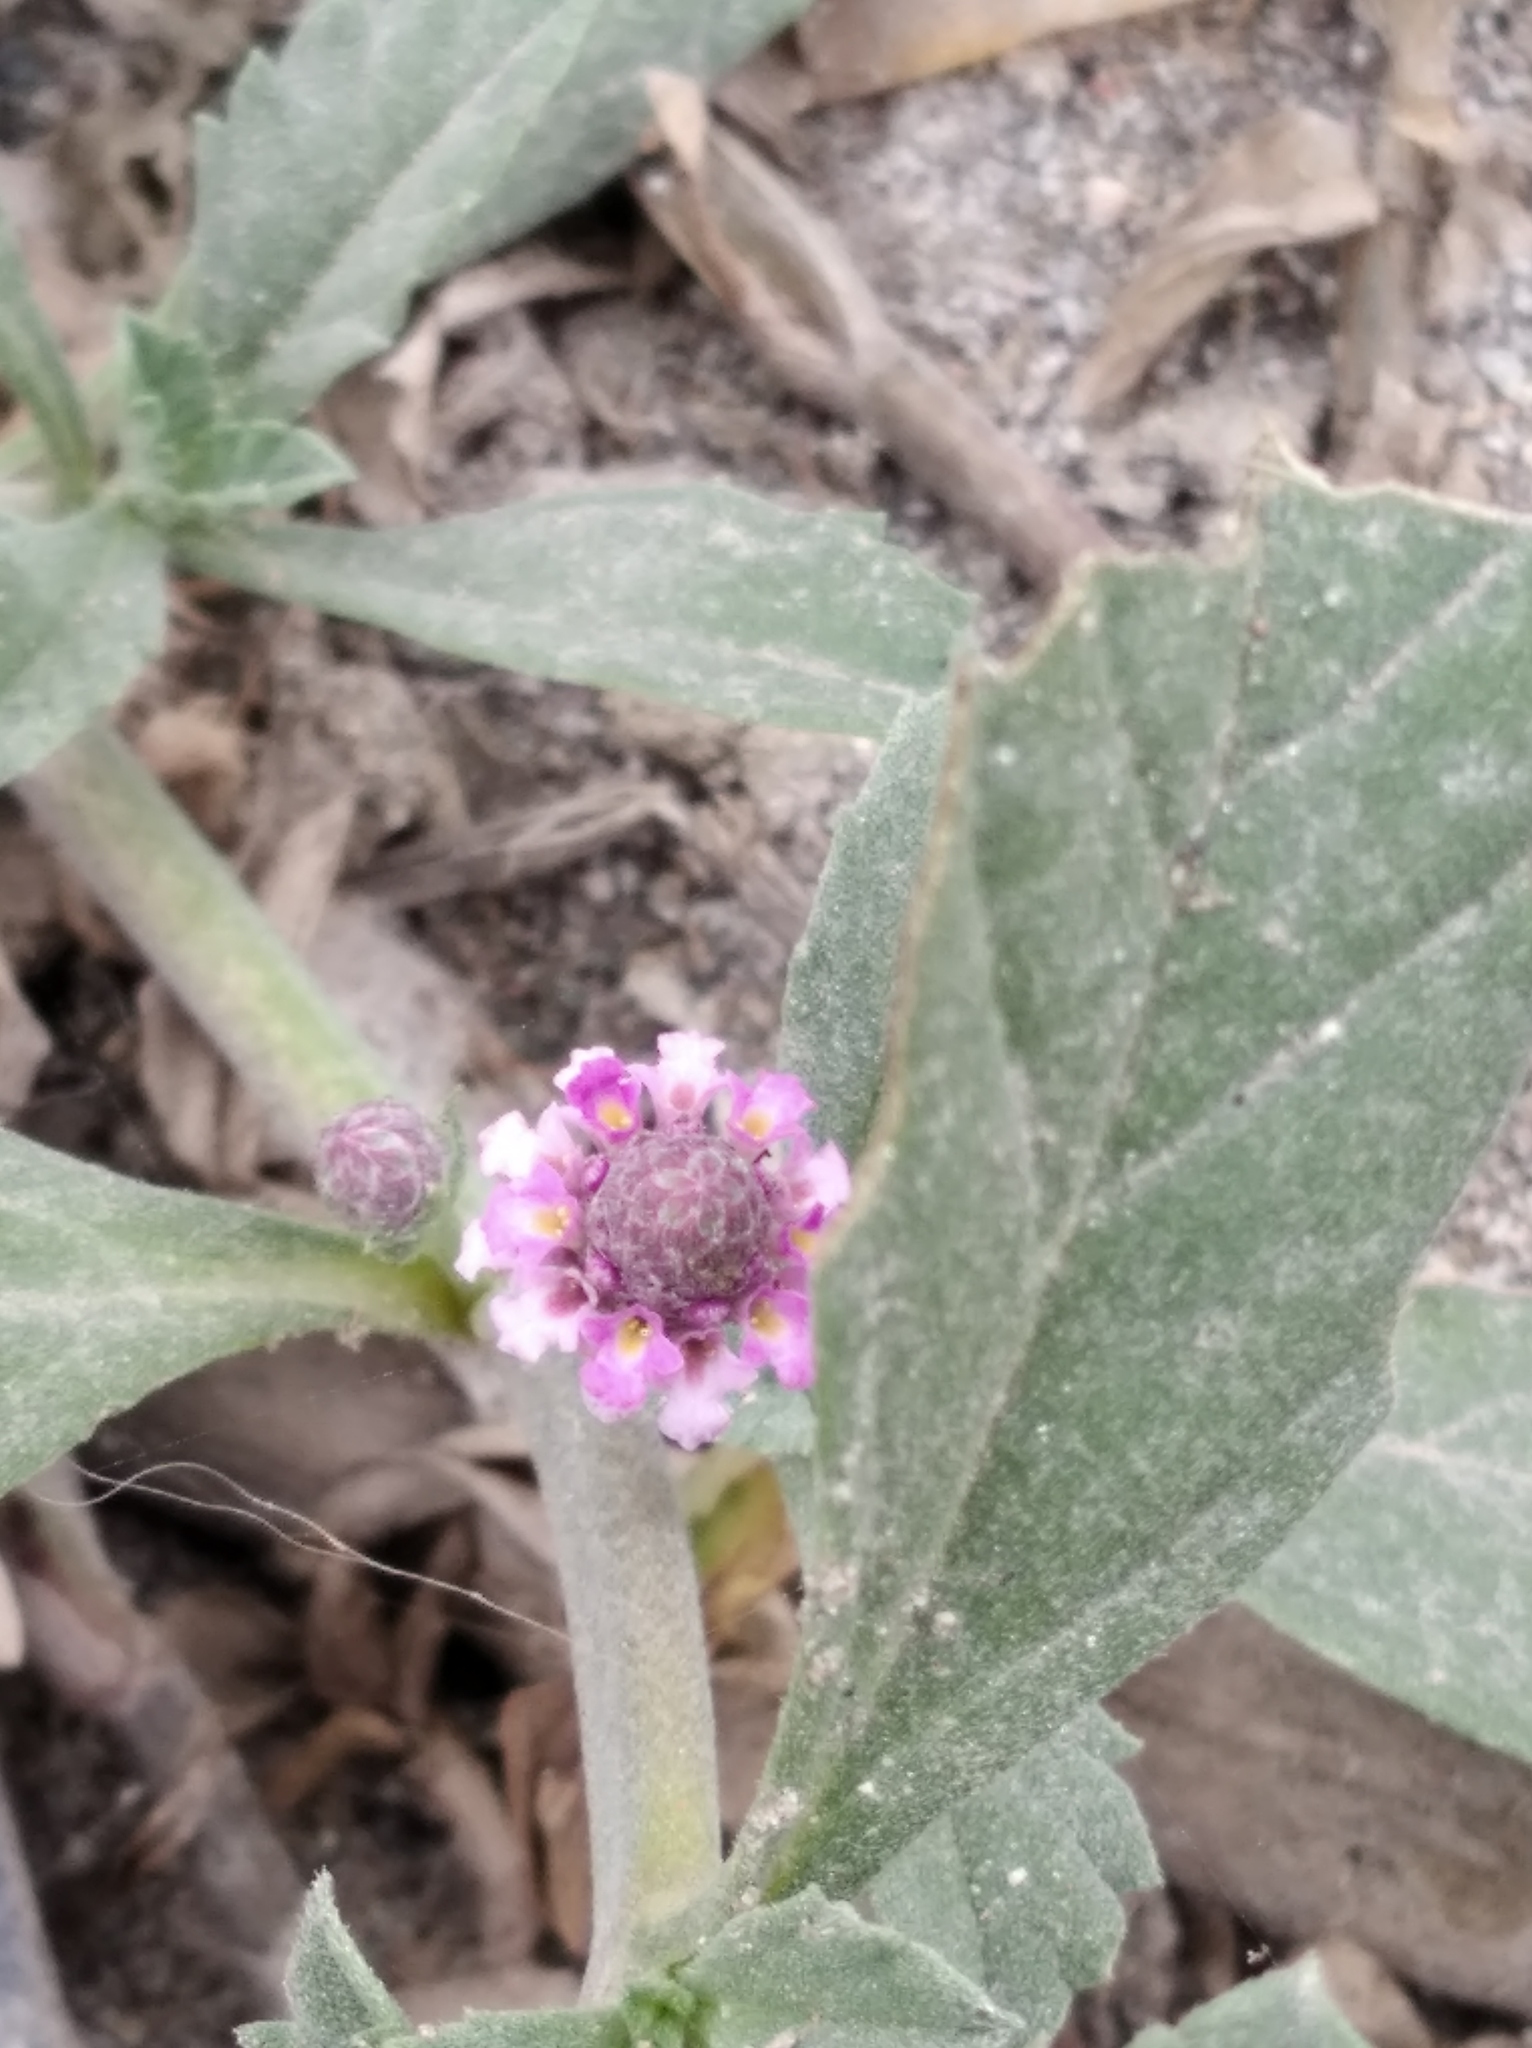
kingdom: Plantae
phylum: Tracheophyta
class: Magnoliopsida
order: Lamiales
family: Verbenaceae
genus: Phyla
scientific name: Phyla nodiflora
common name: Frogfruit
